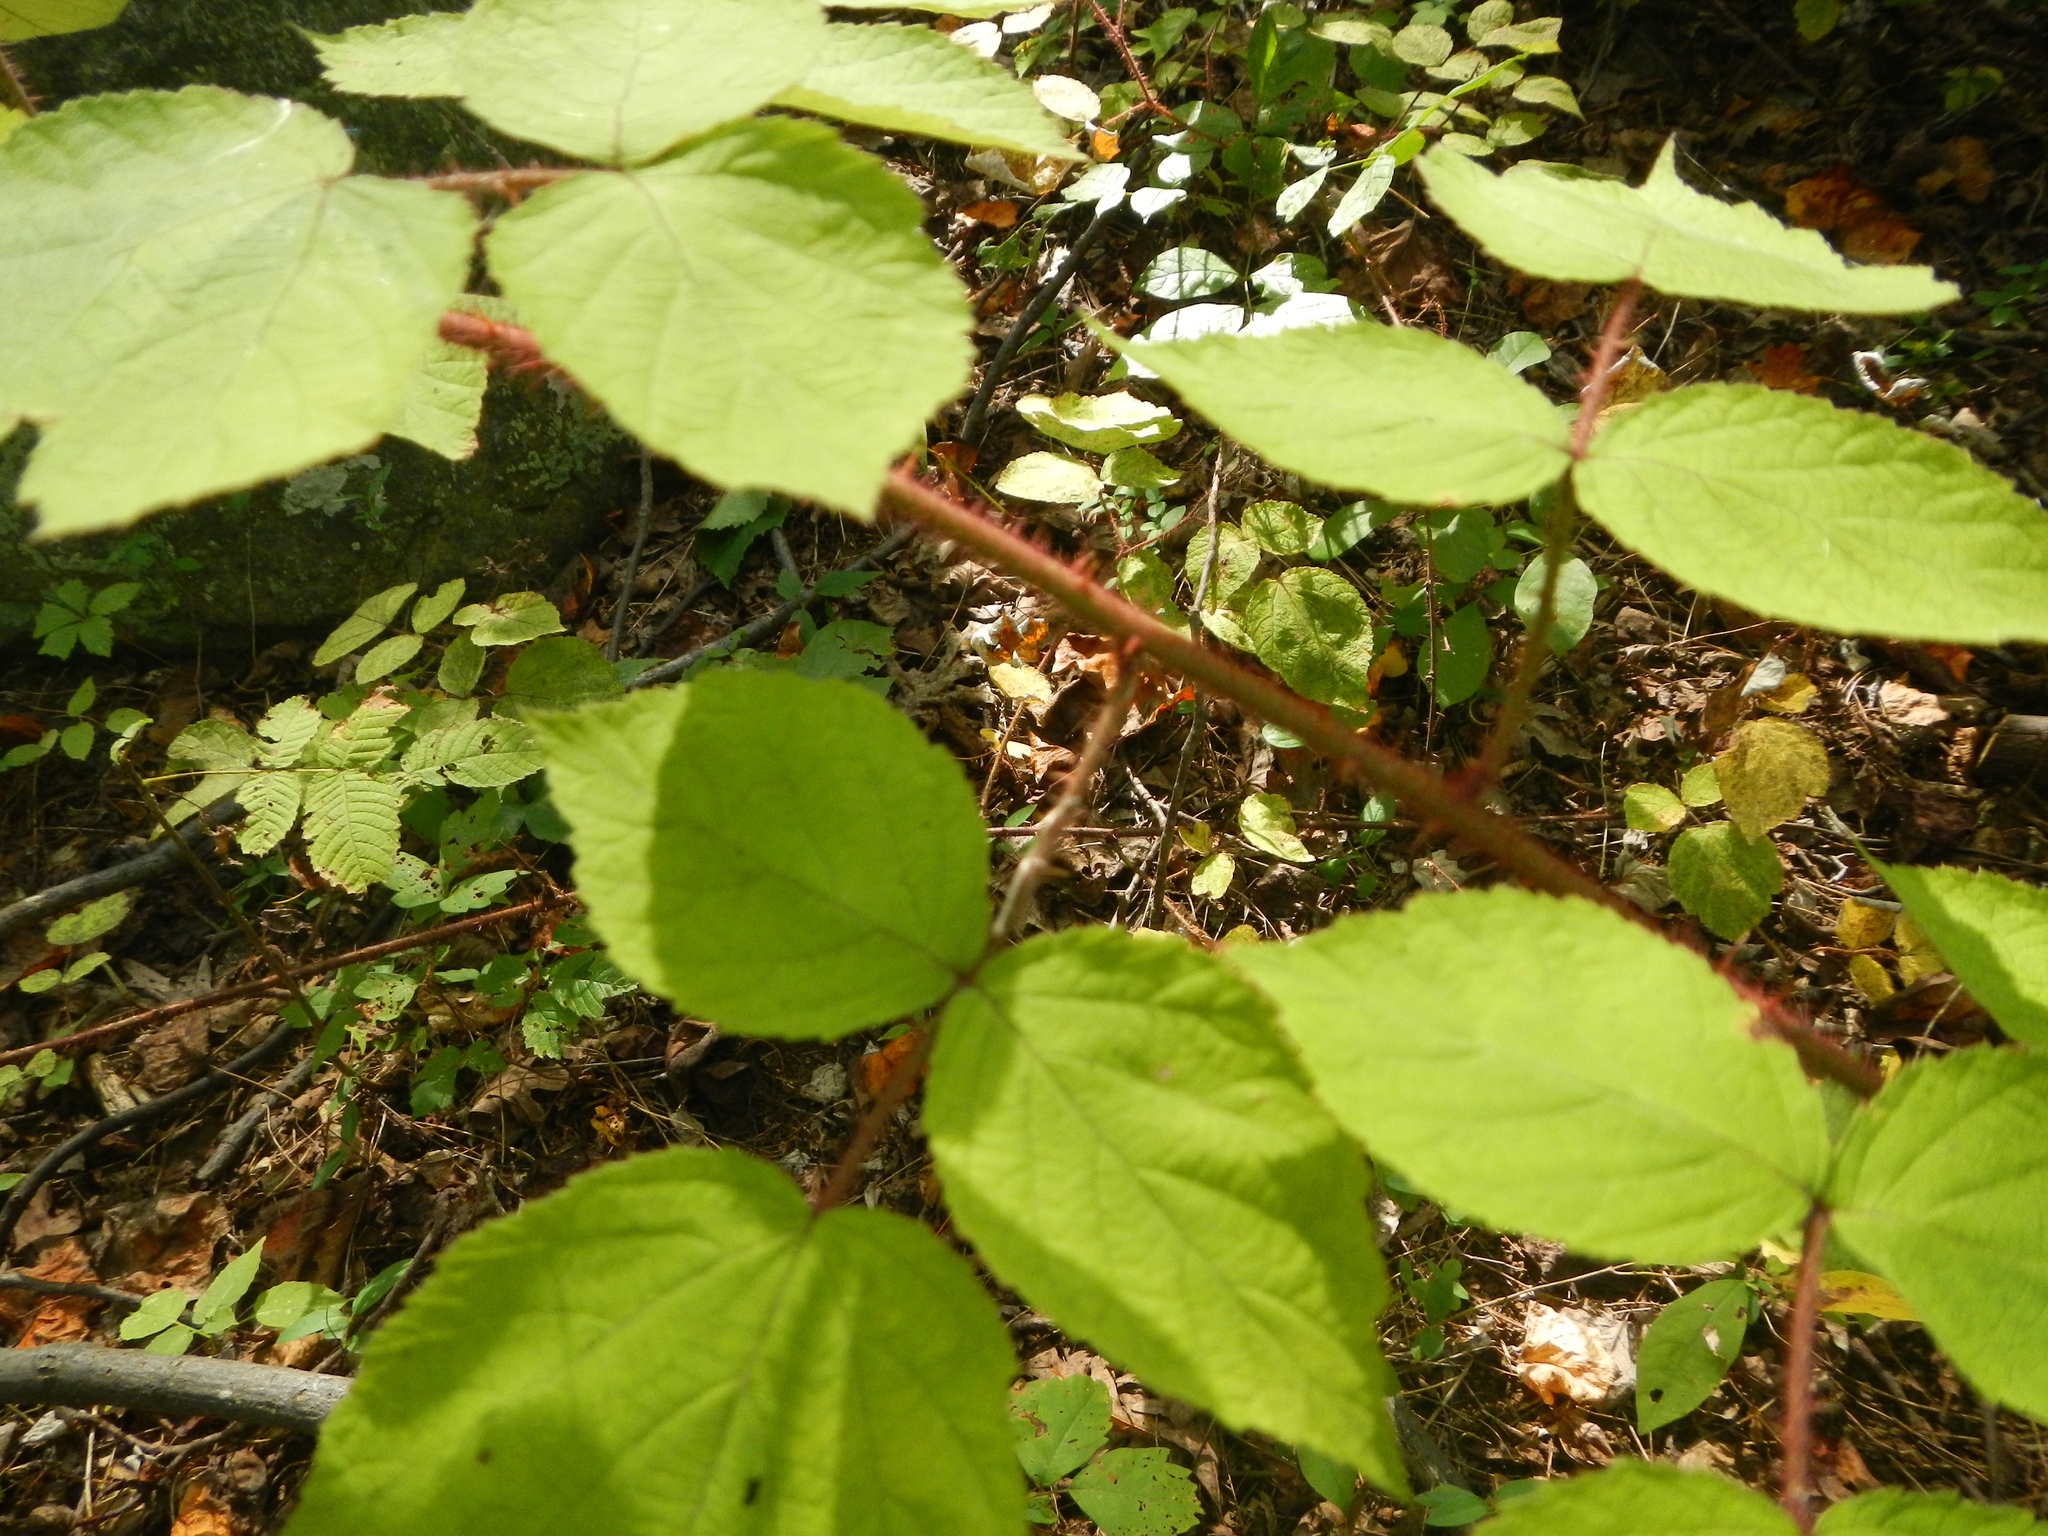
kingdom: Plantae
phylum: Tracheophyta
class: Magnoliopsida
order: Rosales
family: Rosaceae
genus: Rubus
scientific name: Rubus phoenicolasius
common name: Japanese wineberry
